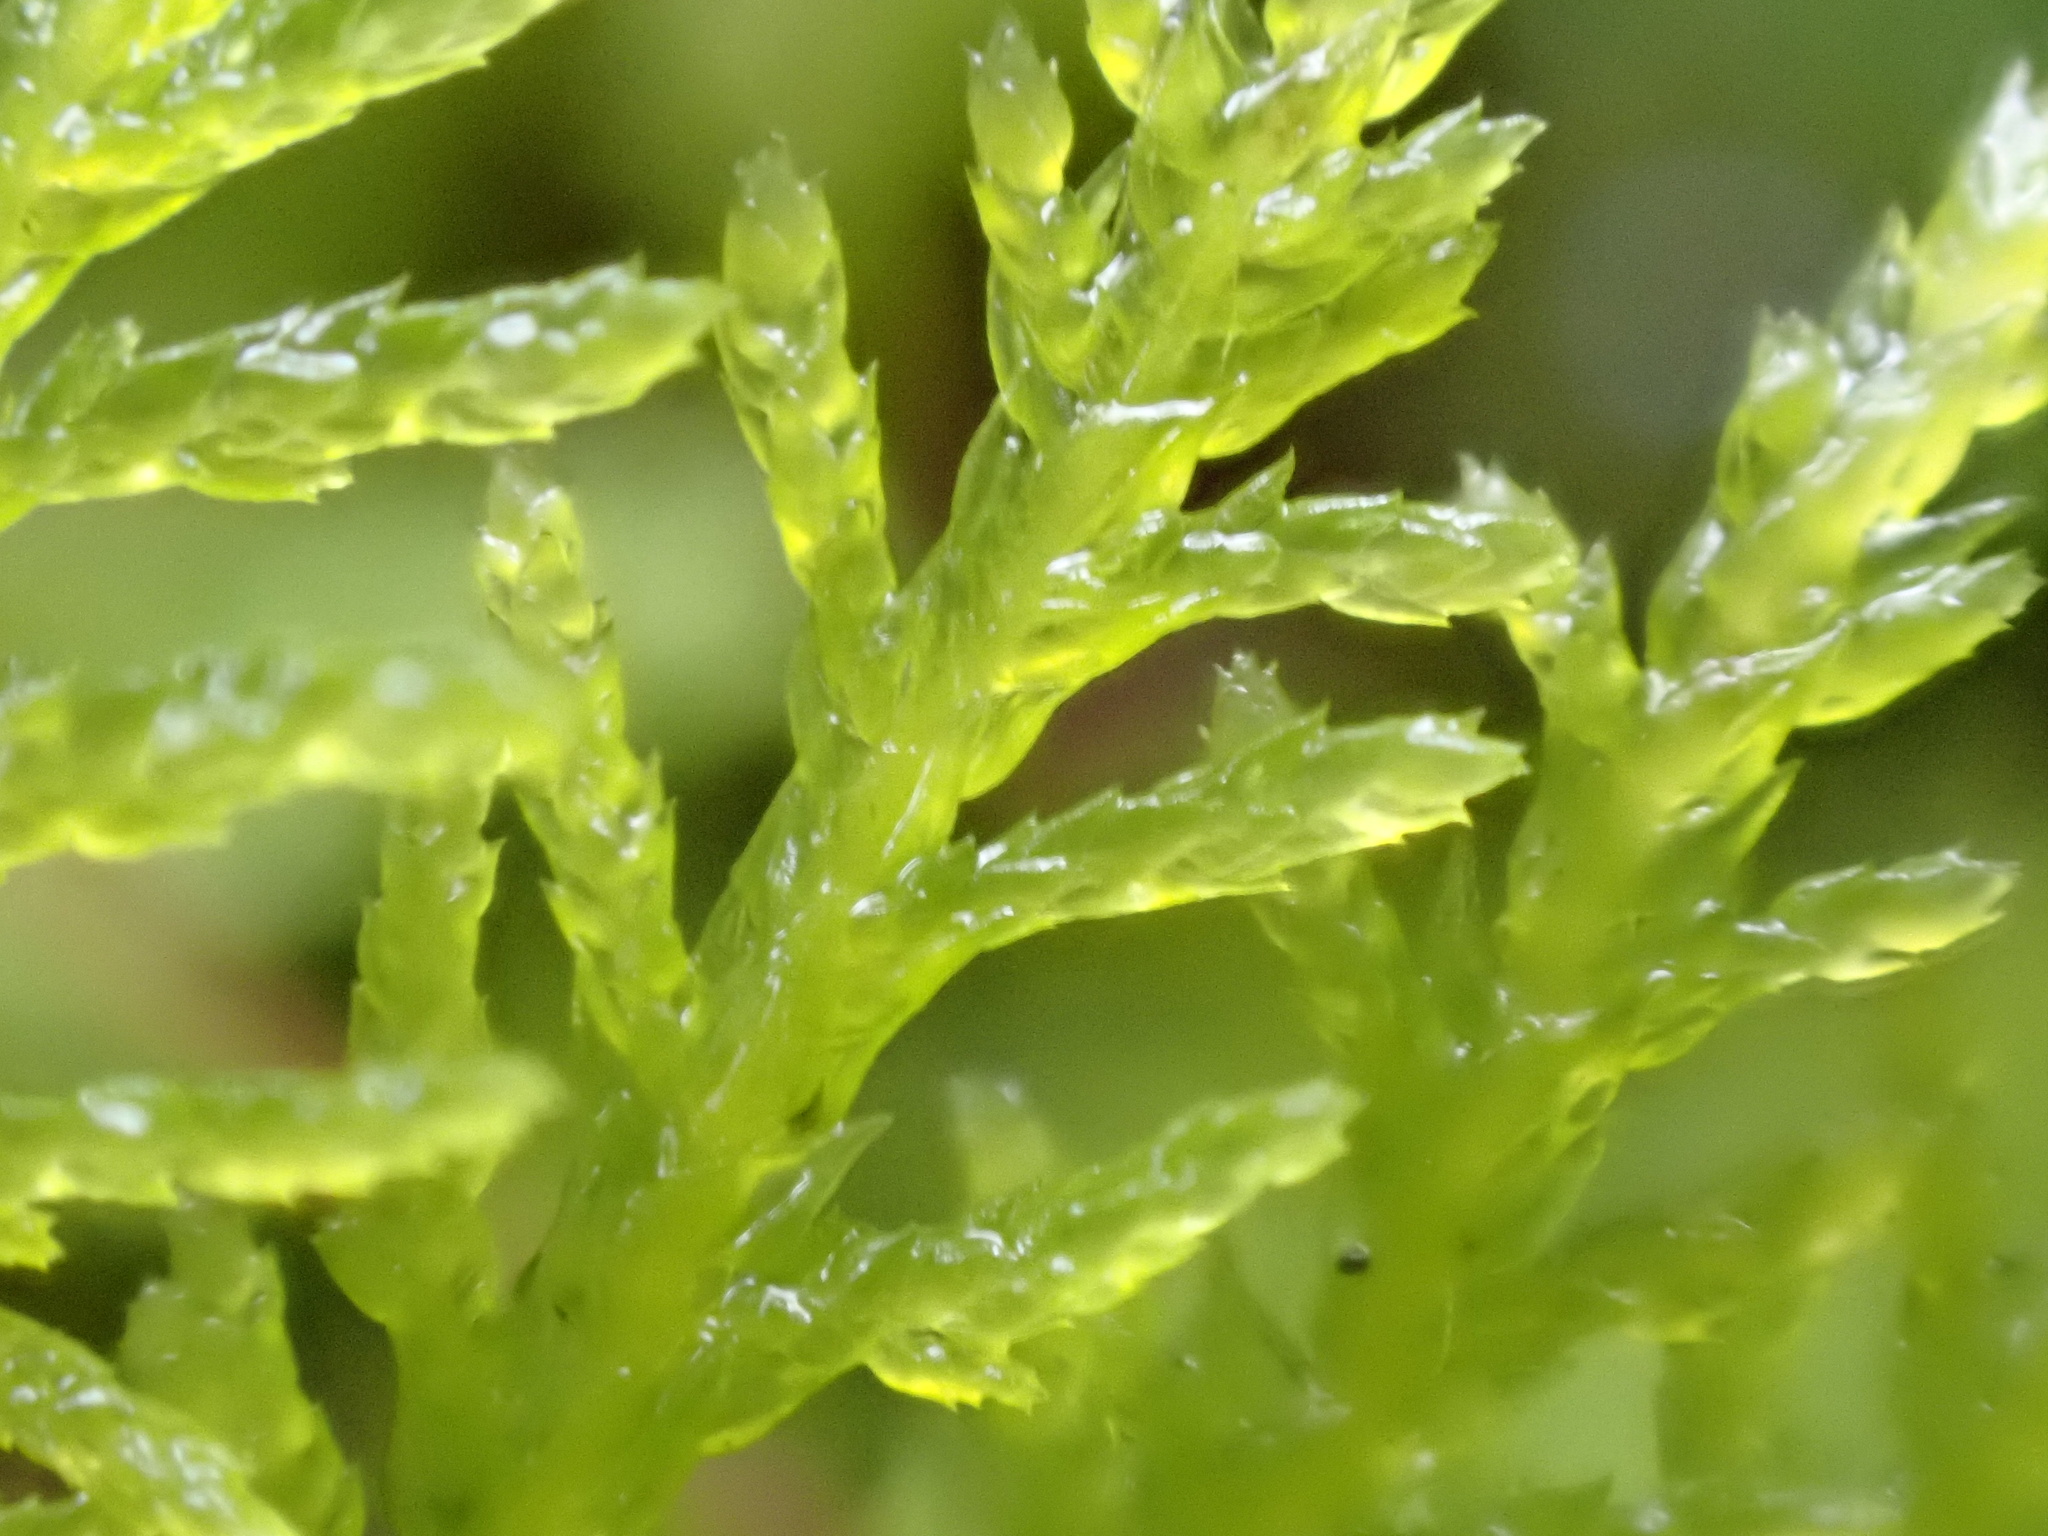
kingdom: Plantae
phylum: Bryophyta
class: Bryopsida
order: Hypnales
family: Thuidiaceae
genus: Thuidium
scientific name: Thuidium tamariscinum
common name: Common tamarisk-moss
